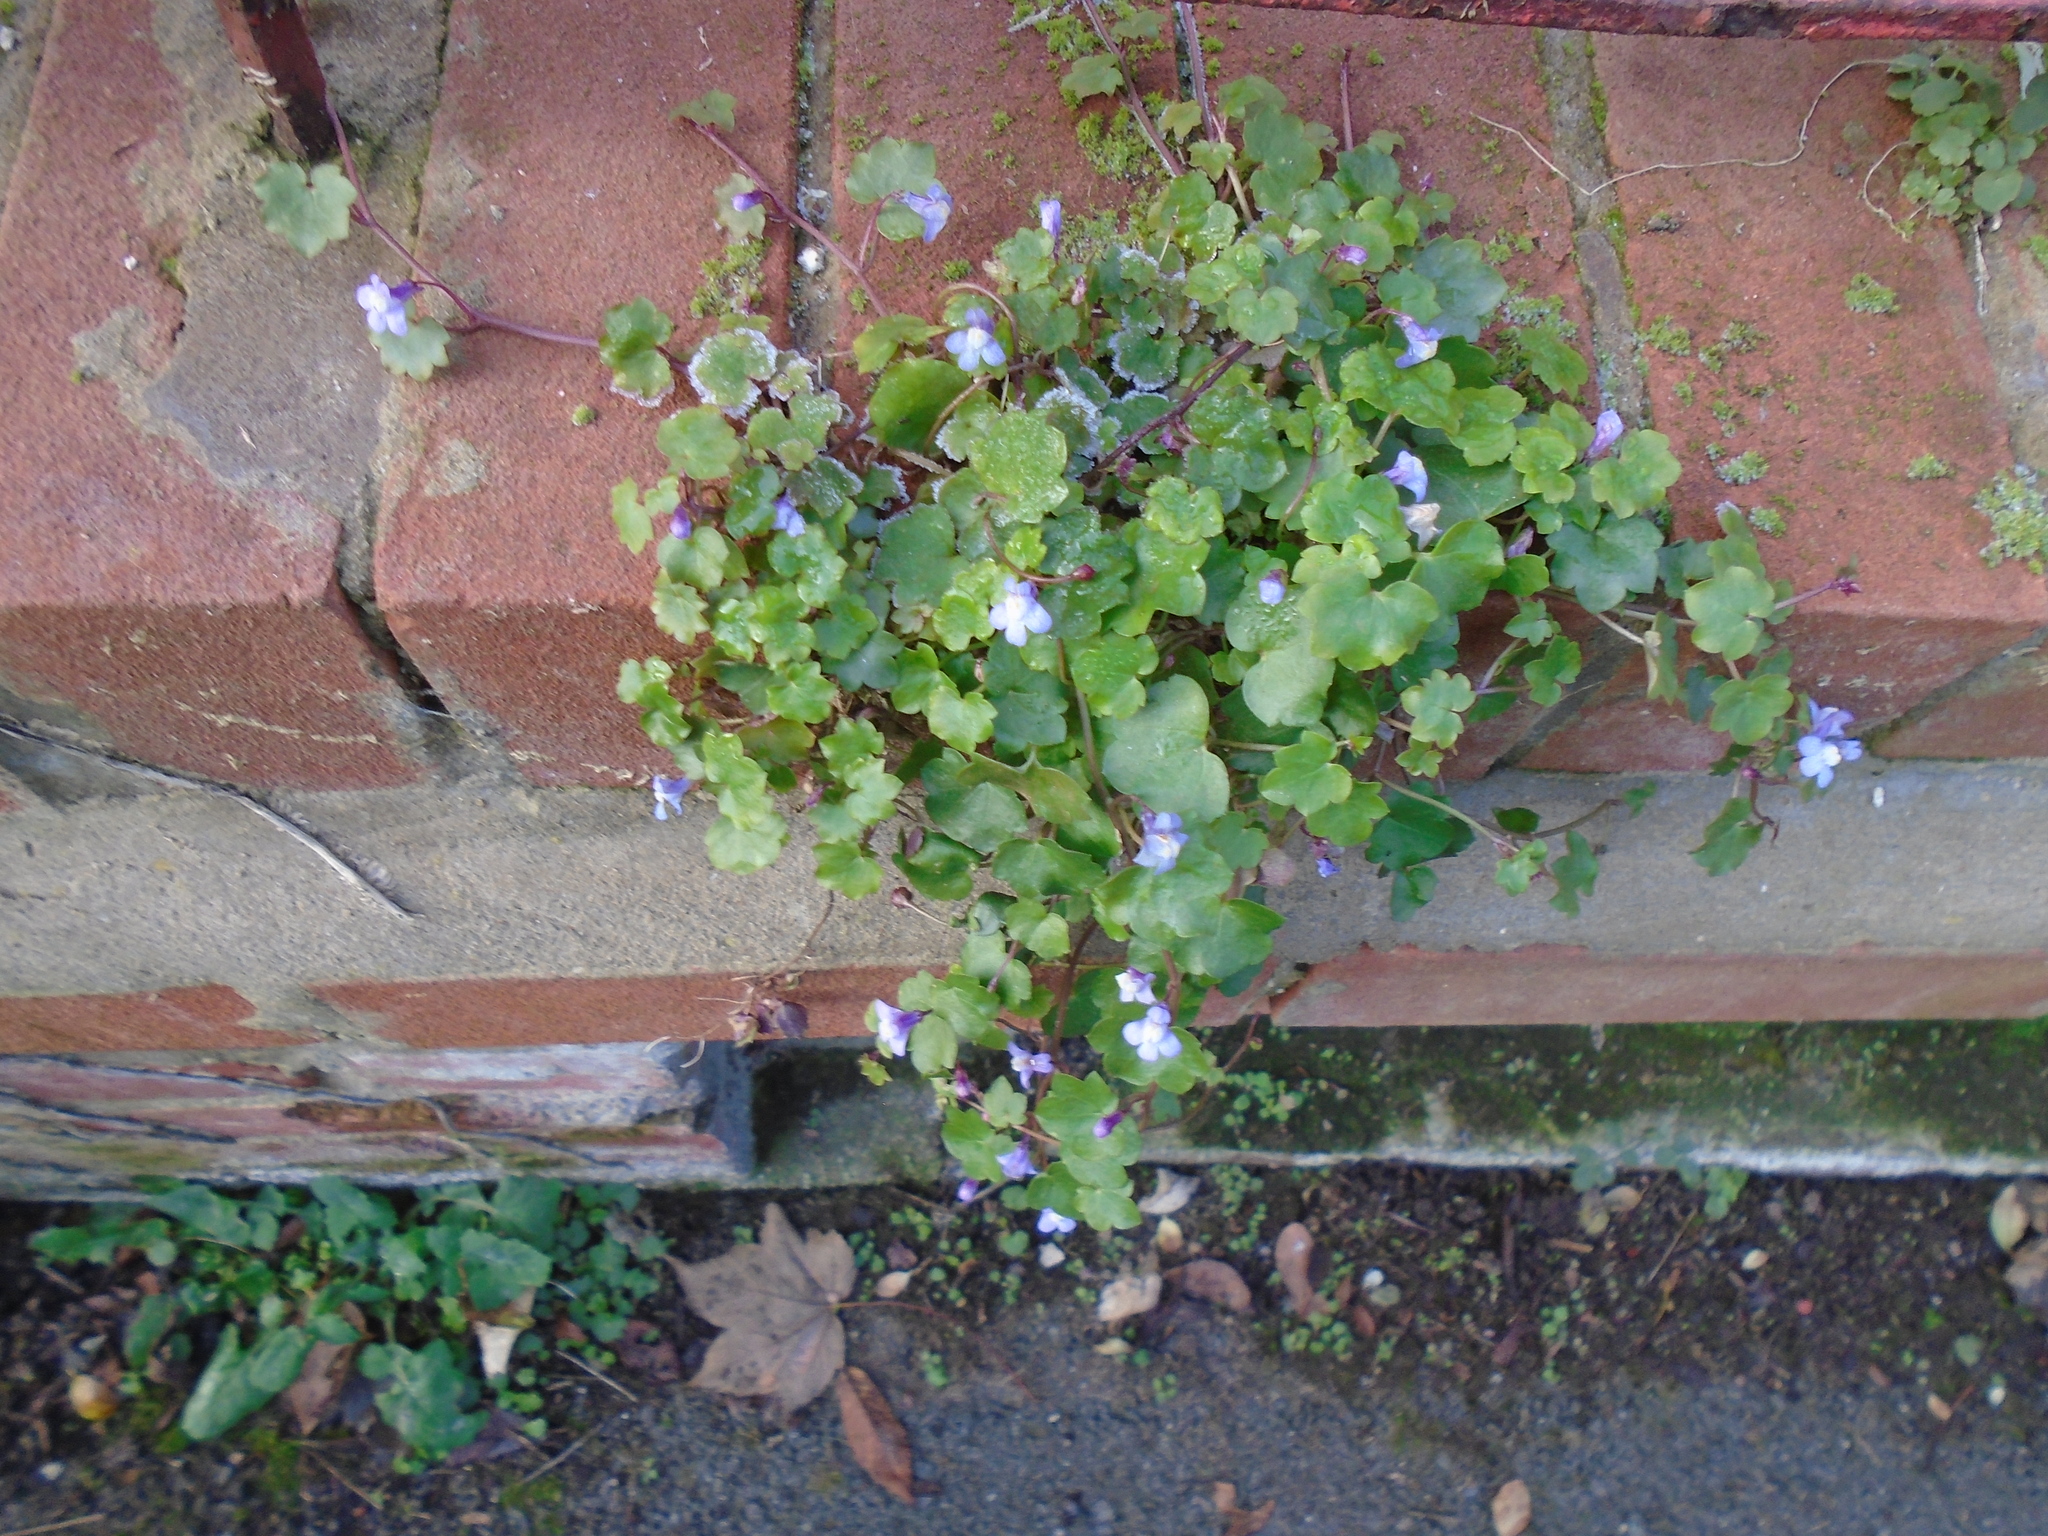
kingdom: Plantae
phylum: Tracheophyta
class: Magnoliopsida
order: Lamiales
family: Plantaginaceae
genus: Cymbalaria
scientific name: Cymbalaria muralis
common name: Ivy-leaved toadflax
